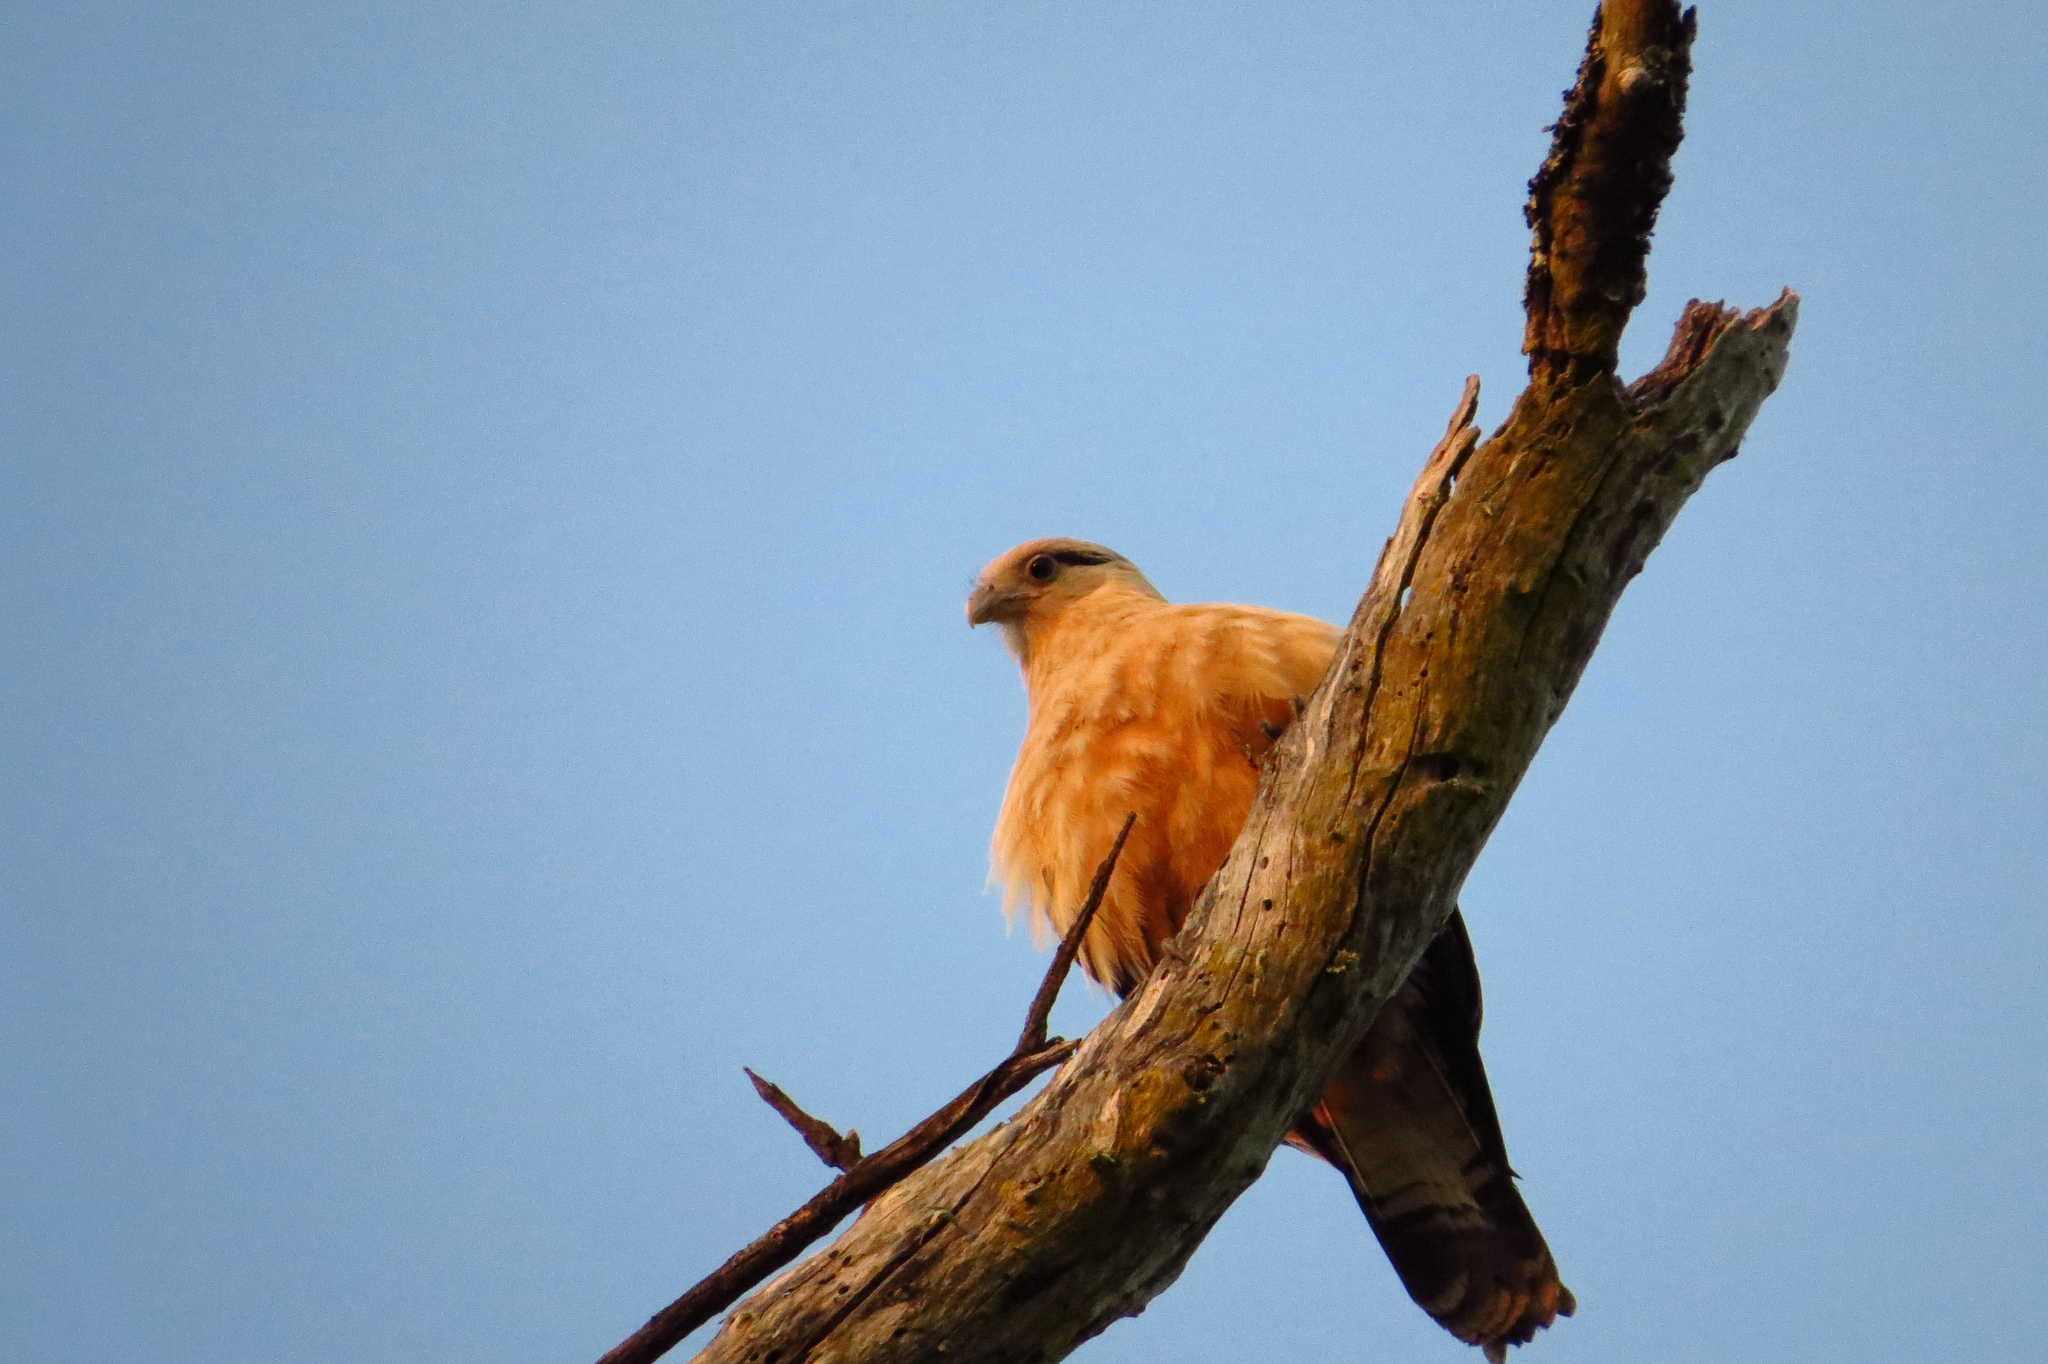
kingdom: Animalia
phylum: Chordata
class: Aves
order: Falconiformes
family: Falconidae
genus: Daptrius
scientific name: Daptrius
